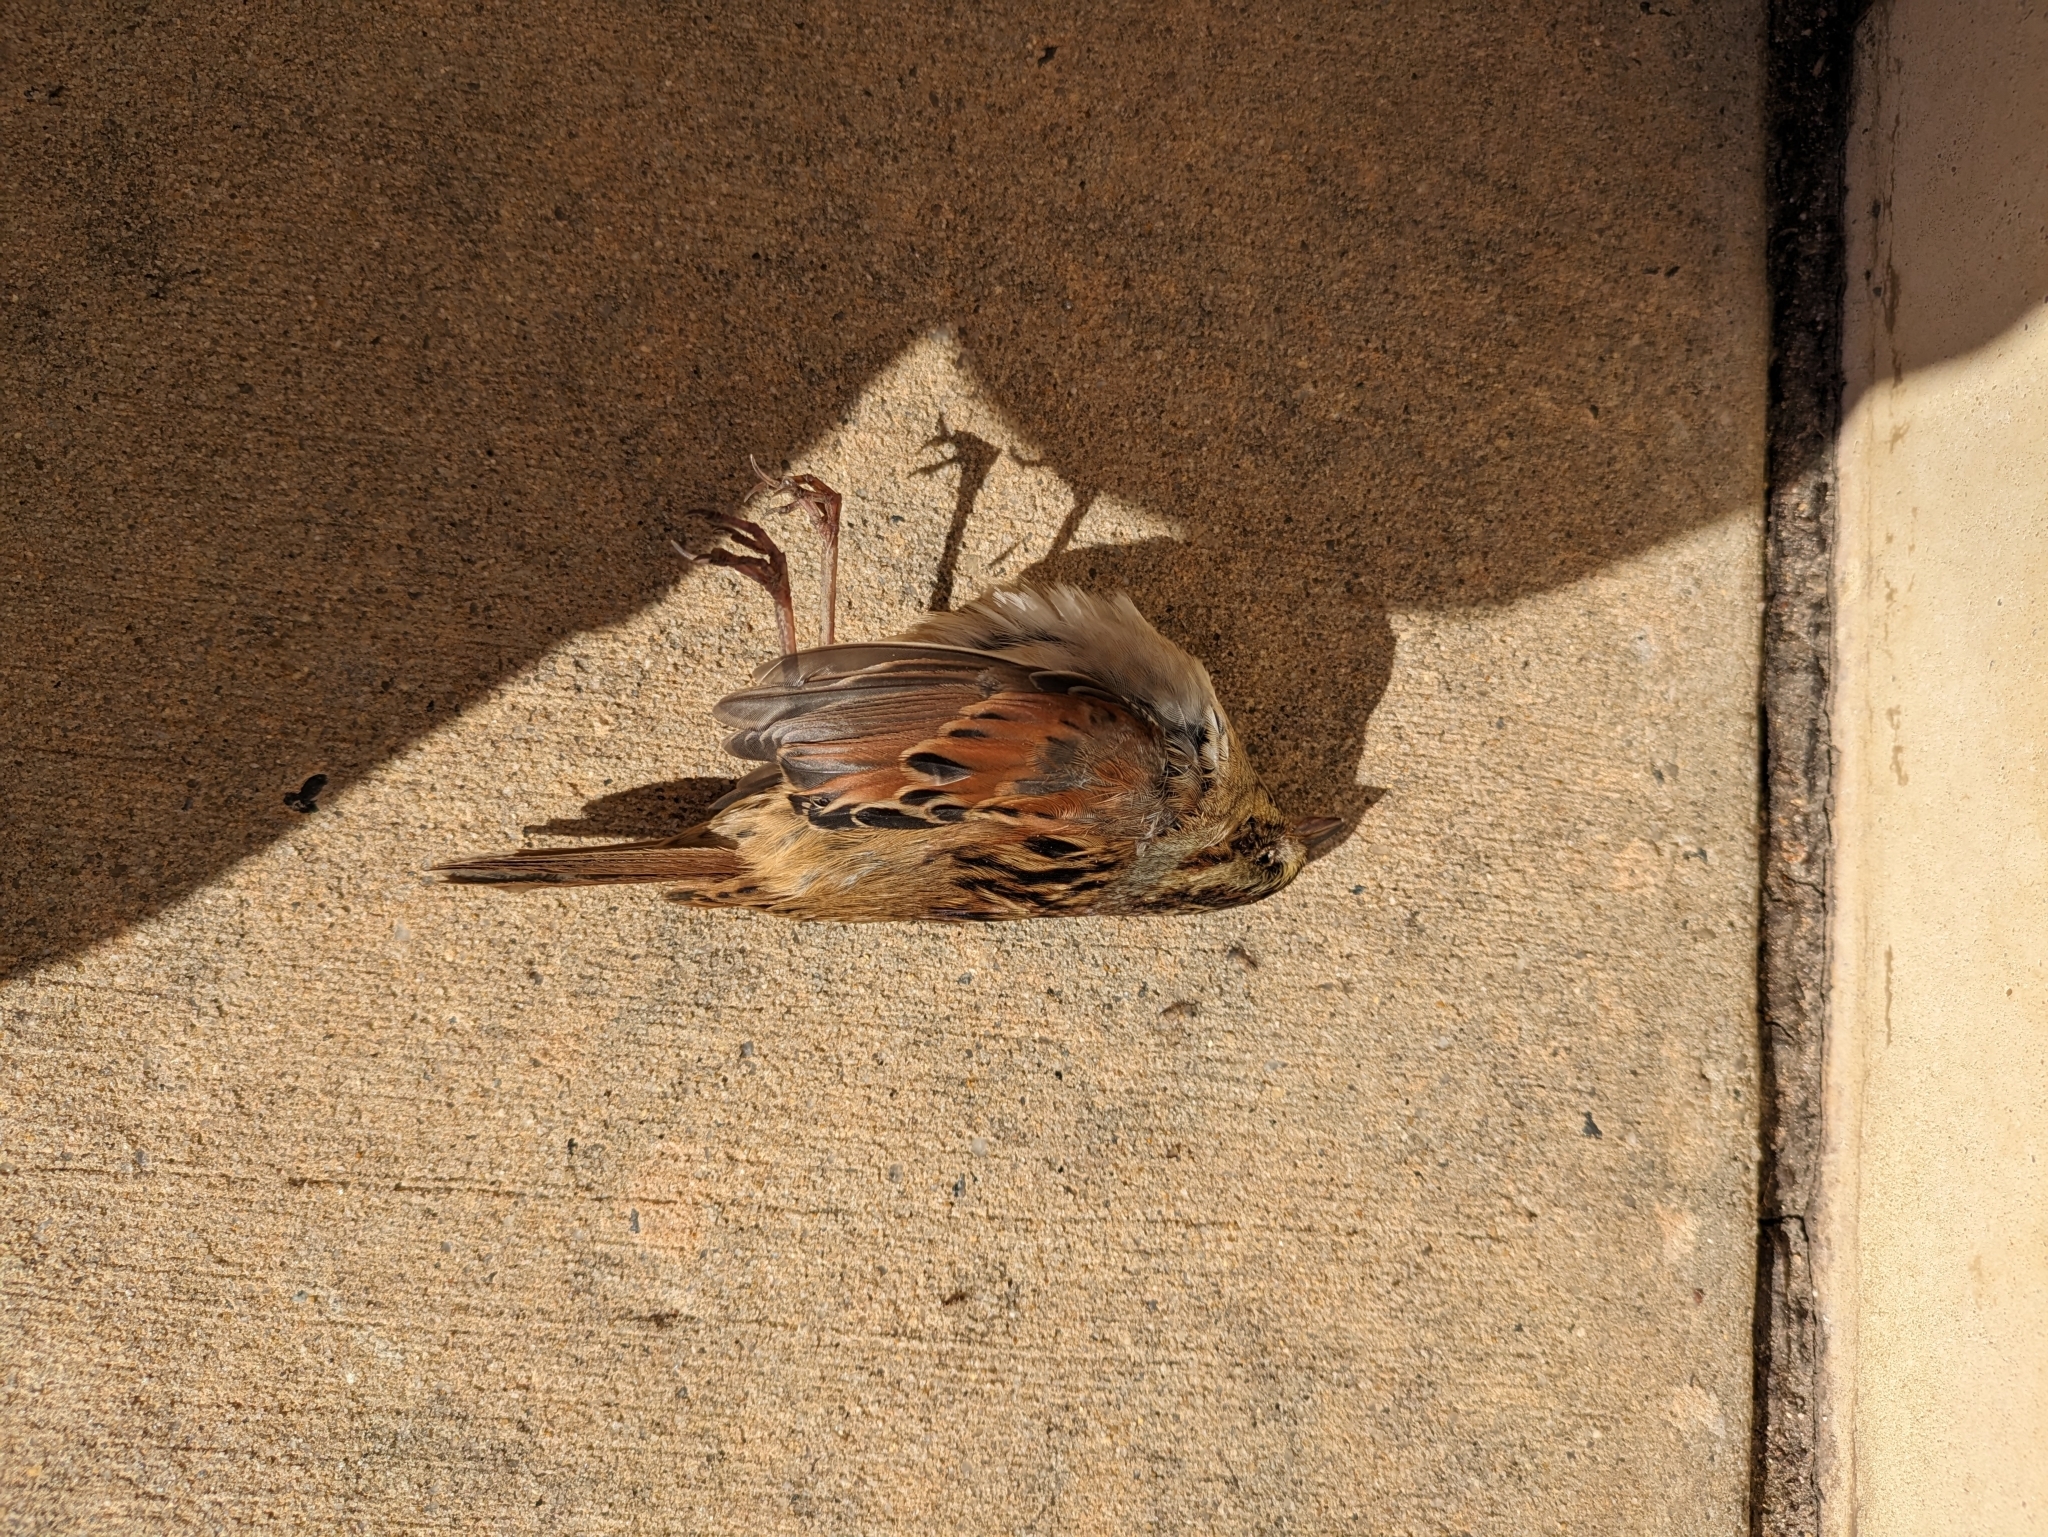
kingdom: Animalia
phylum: Chordata
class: Aves
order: Passeriformes
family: Passerellidae
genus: Melospiza
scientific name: Melospiza georgiana
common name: Swamp sparrow
